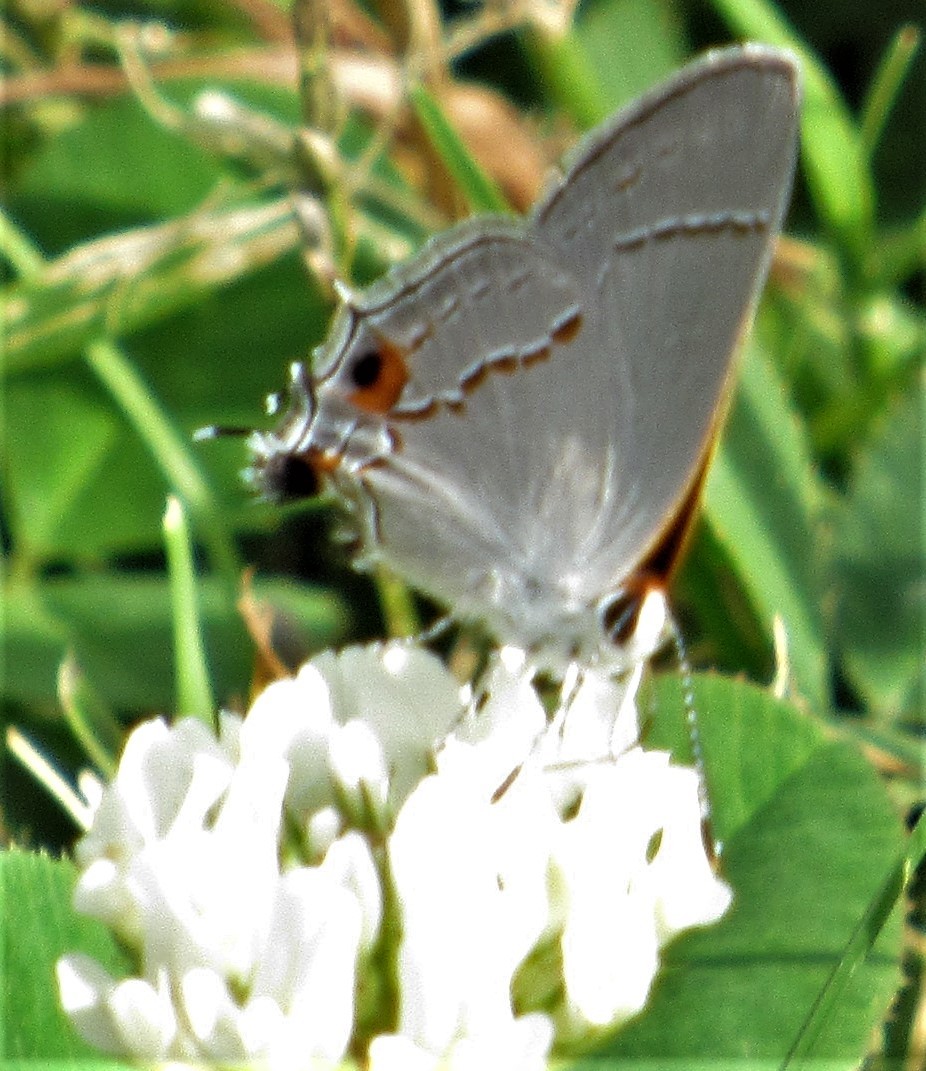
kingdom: Animalia
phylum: Arthropoda
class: Insecta
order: Lepidoptera
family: Lycaenidae
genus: Strymon
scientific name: Strymon melinus
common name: Gray hairstreak
